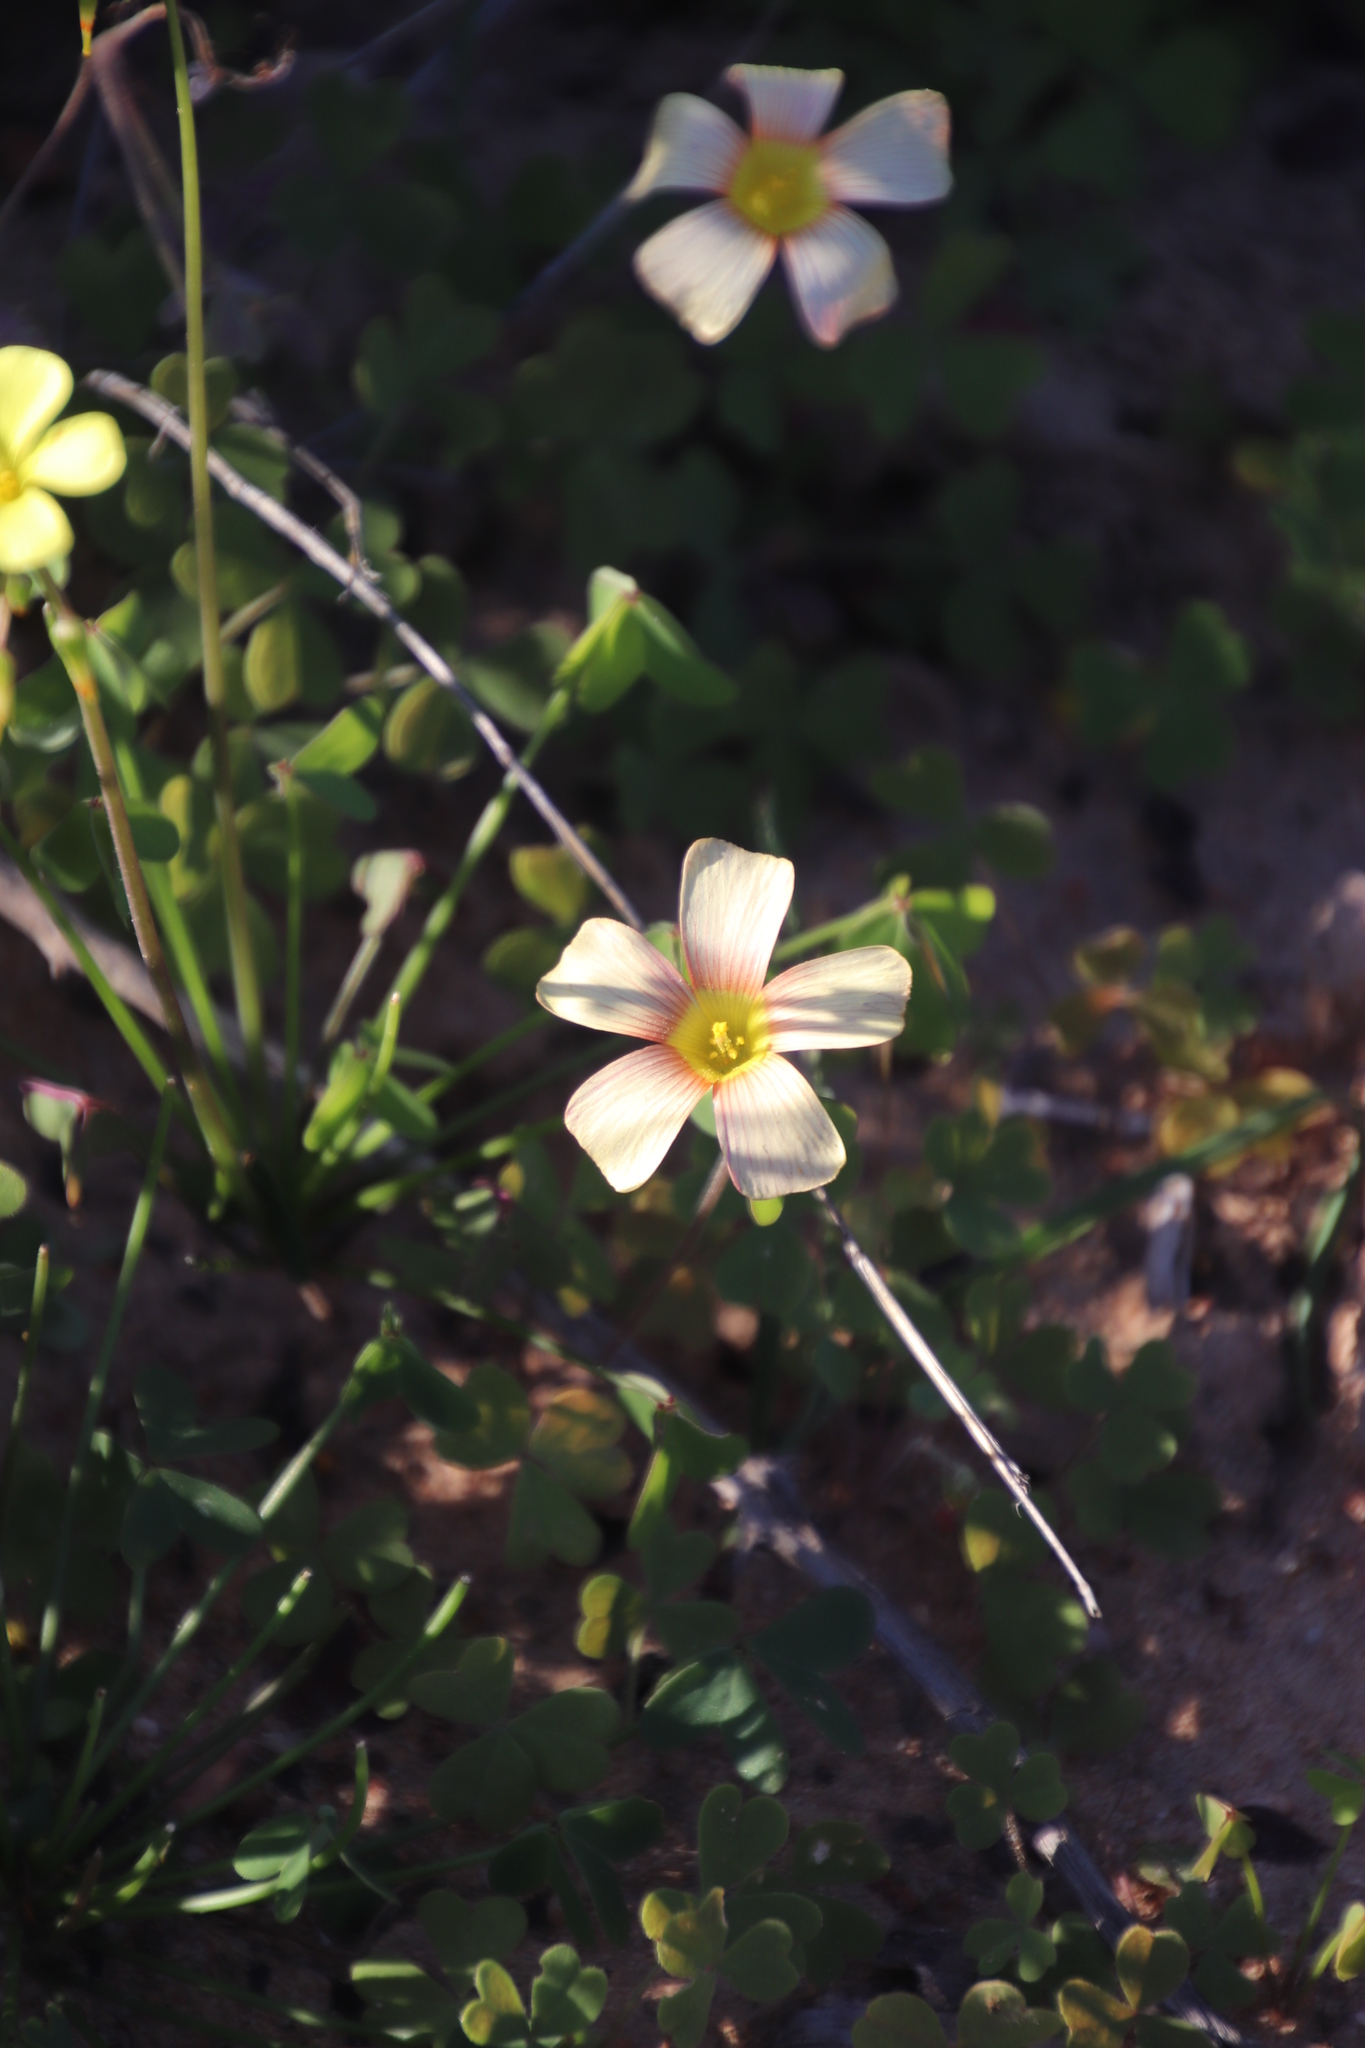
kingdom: Plantae
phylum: Tracheophyta
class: Magnoliopsida
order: Oxalidales
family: Oxalidaceae
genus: Oxalis
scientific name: Oxalis obtusa
